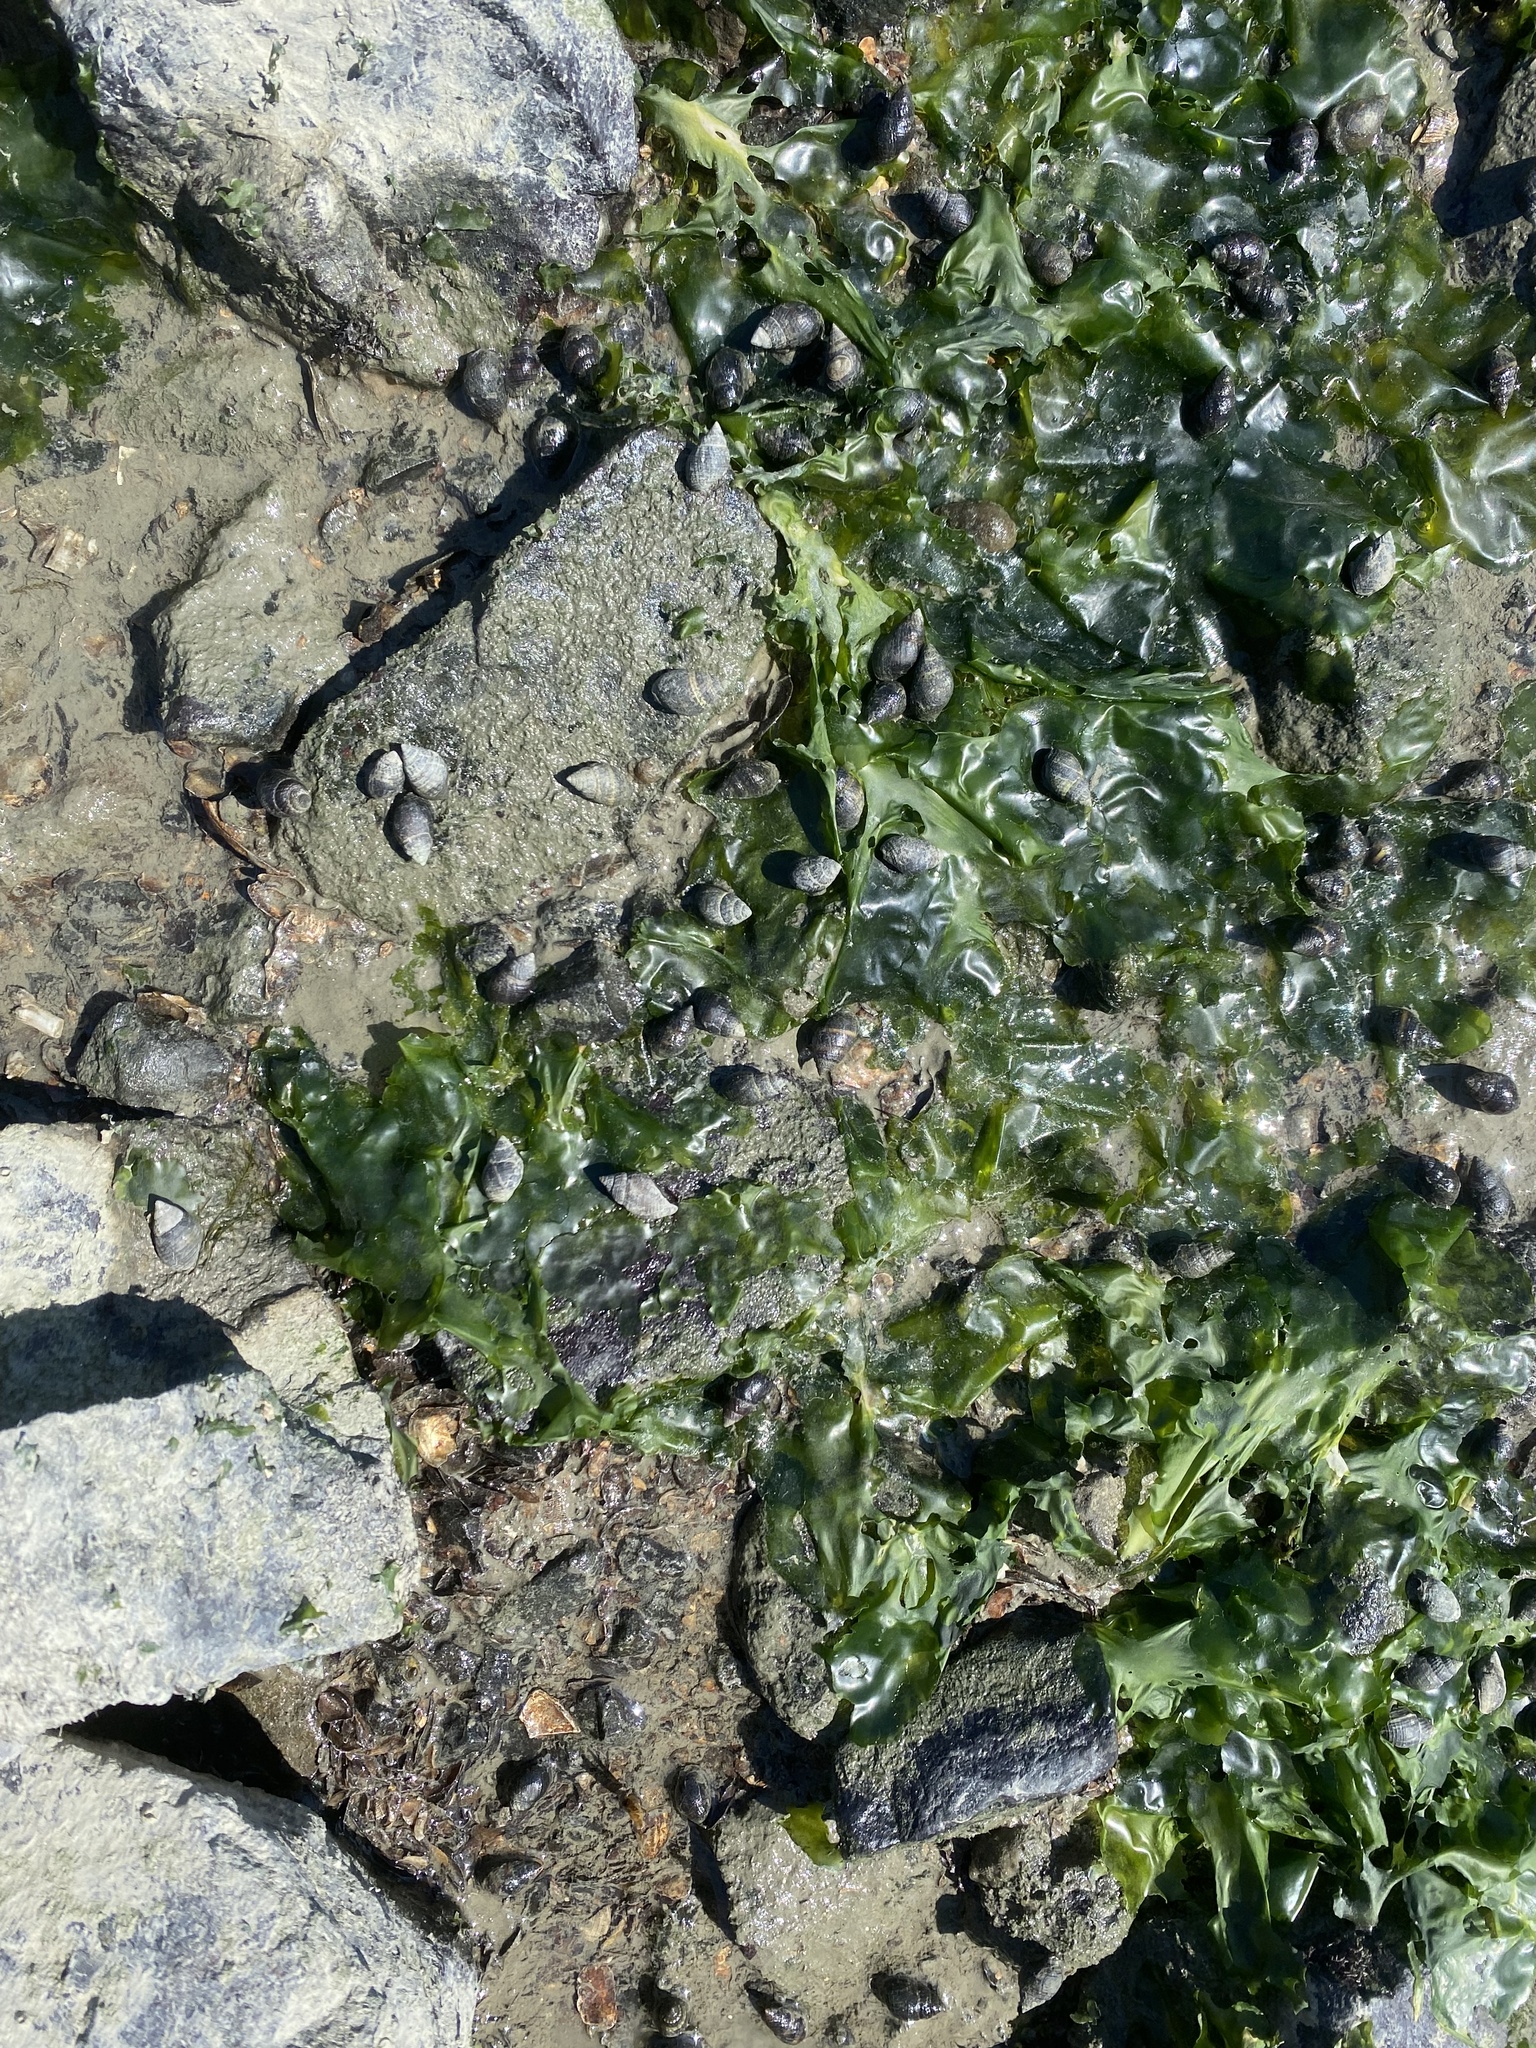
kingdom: Plantae
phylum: Chlorophyta
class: Ulvophyceae
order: Ulvales
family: Ulvaceae
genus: Ulva
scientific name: Ulva lactuca
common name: Sea lettuce
